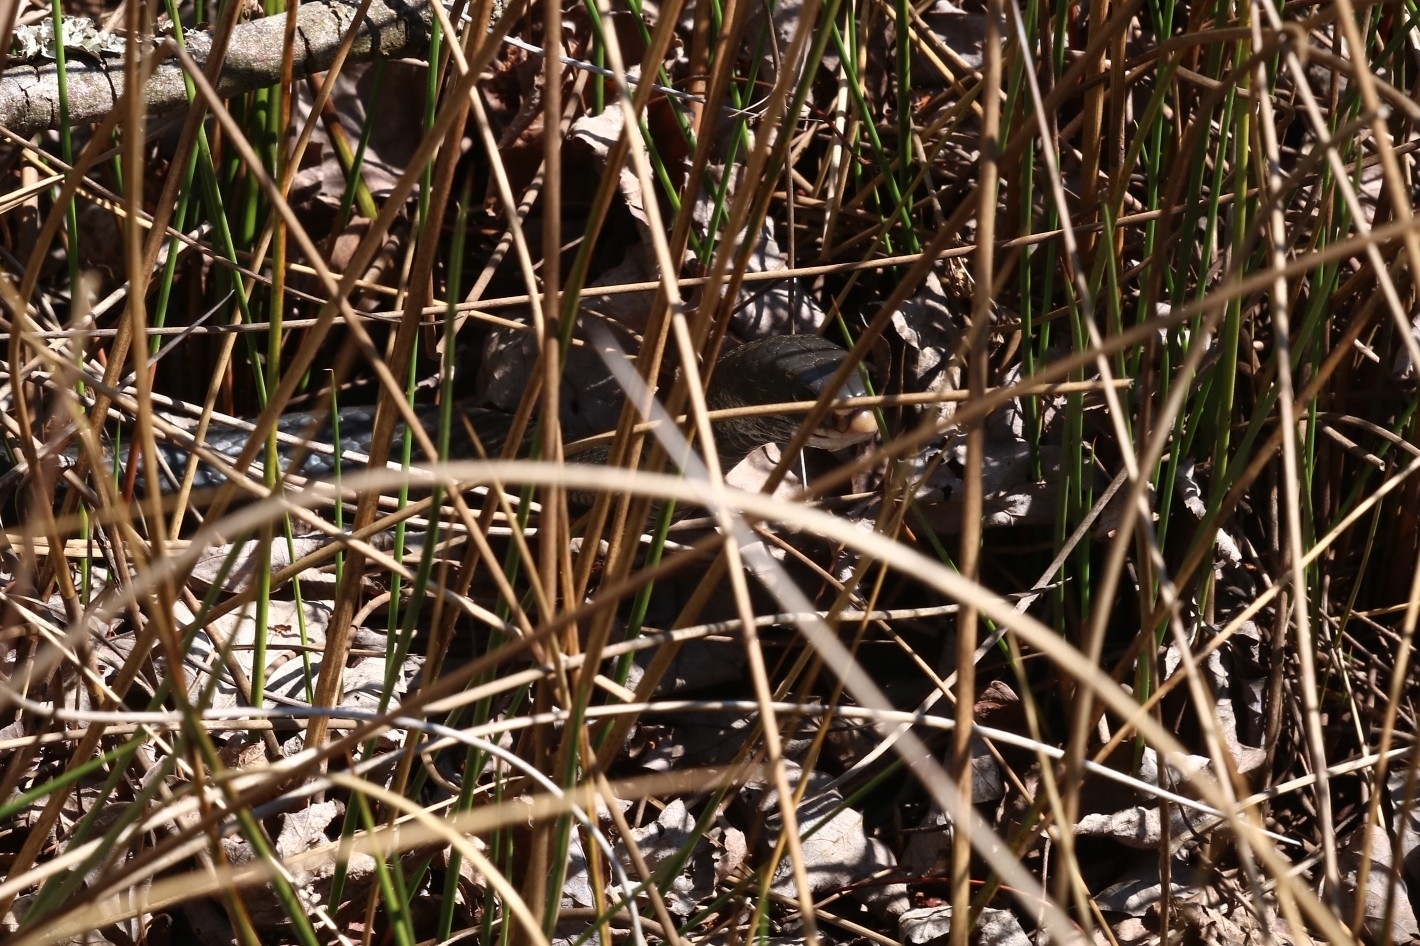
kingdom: Animalia
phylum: Chordata
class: Squamata
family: Colubridae
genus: Coluber
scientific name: Coluber constrictor
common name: Eastern racer
